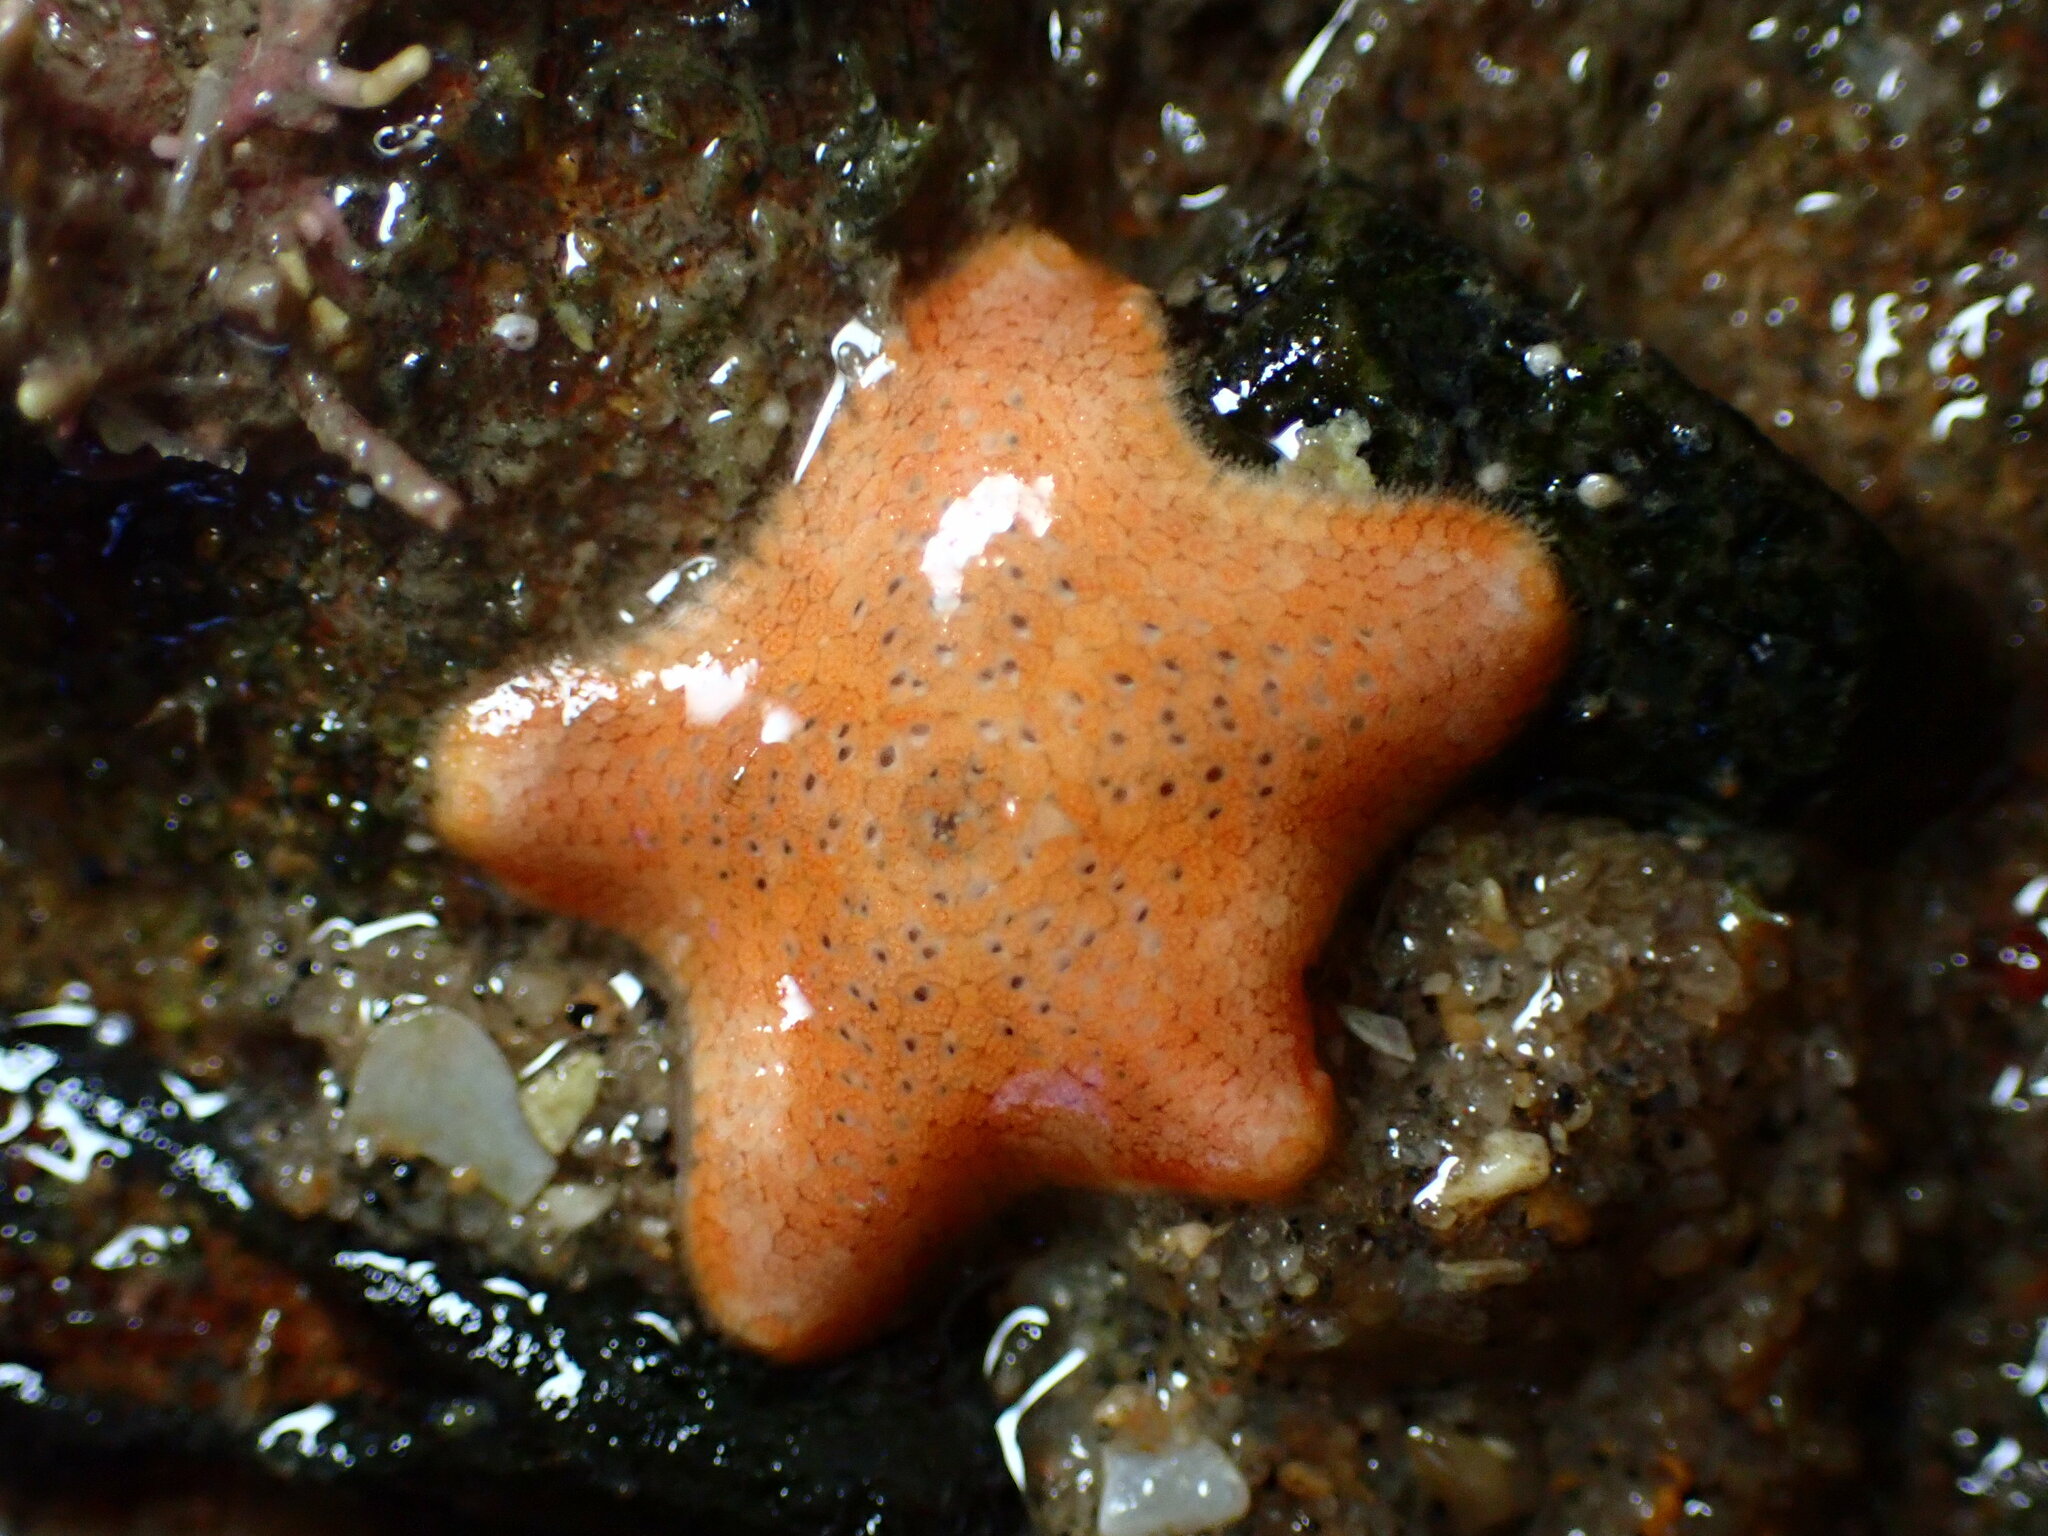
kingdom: Animalia
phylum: Echinodermata
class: Asteroidea
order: Valvatida
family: Asterinidae
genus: Patiria
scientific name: Patiria miniata
